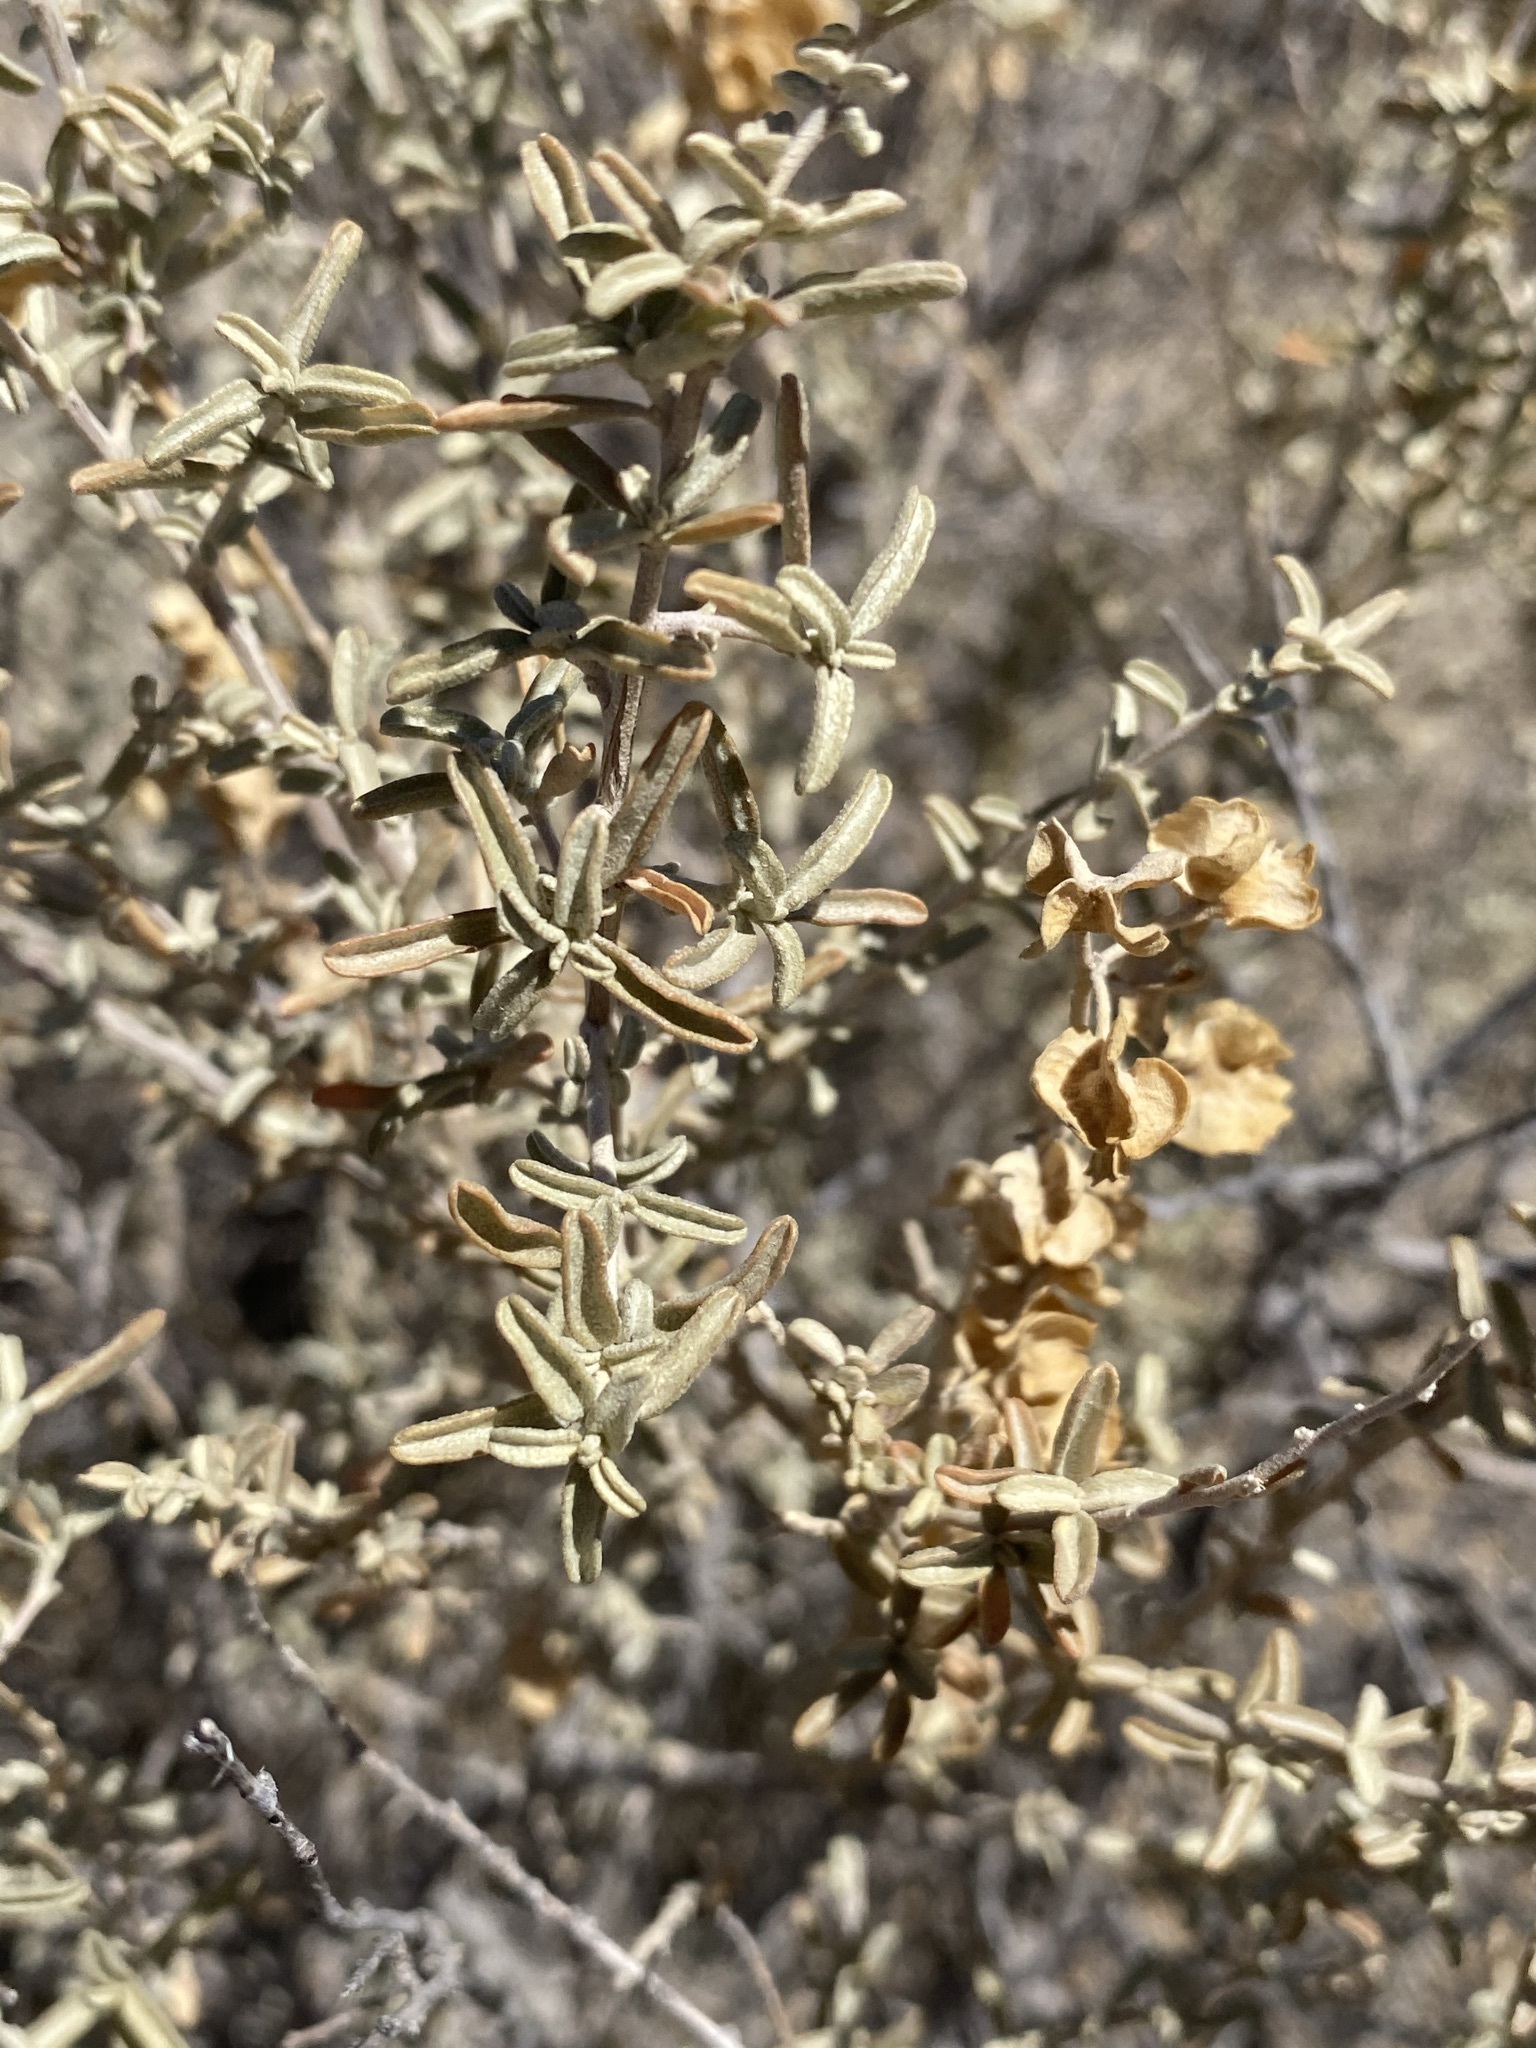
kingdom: Plantae
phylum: Tracheophyta
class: Magnoliopsida
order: Caryophyllales
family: Amaranthaceae
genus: Atriplex
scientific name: Atriplex canescens
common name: Four-wing saltbush
